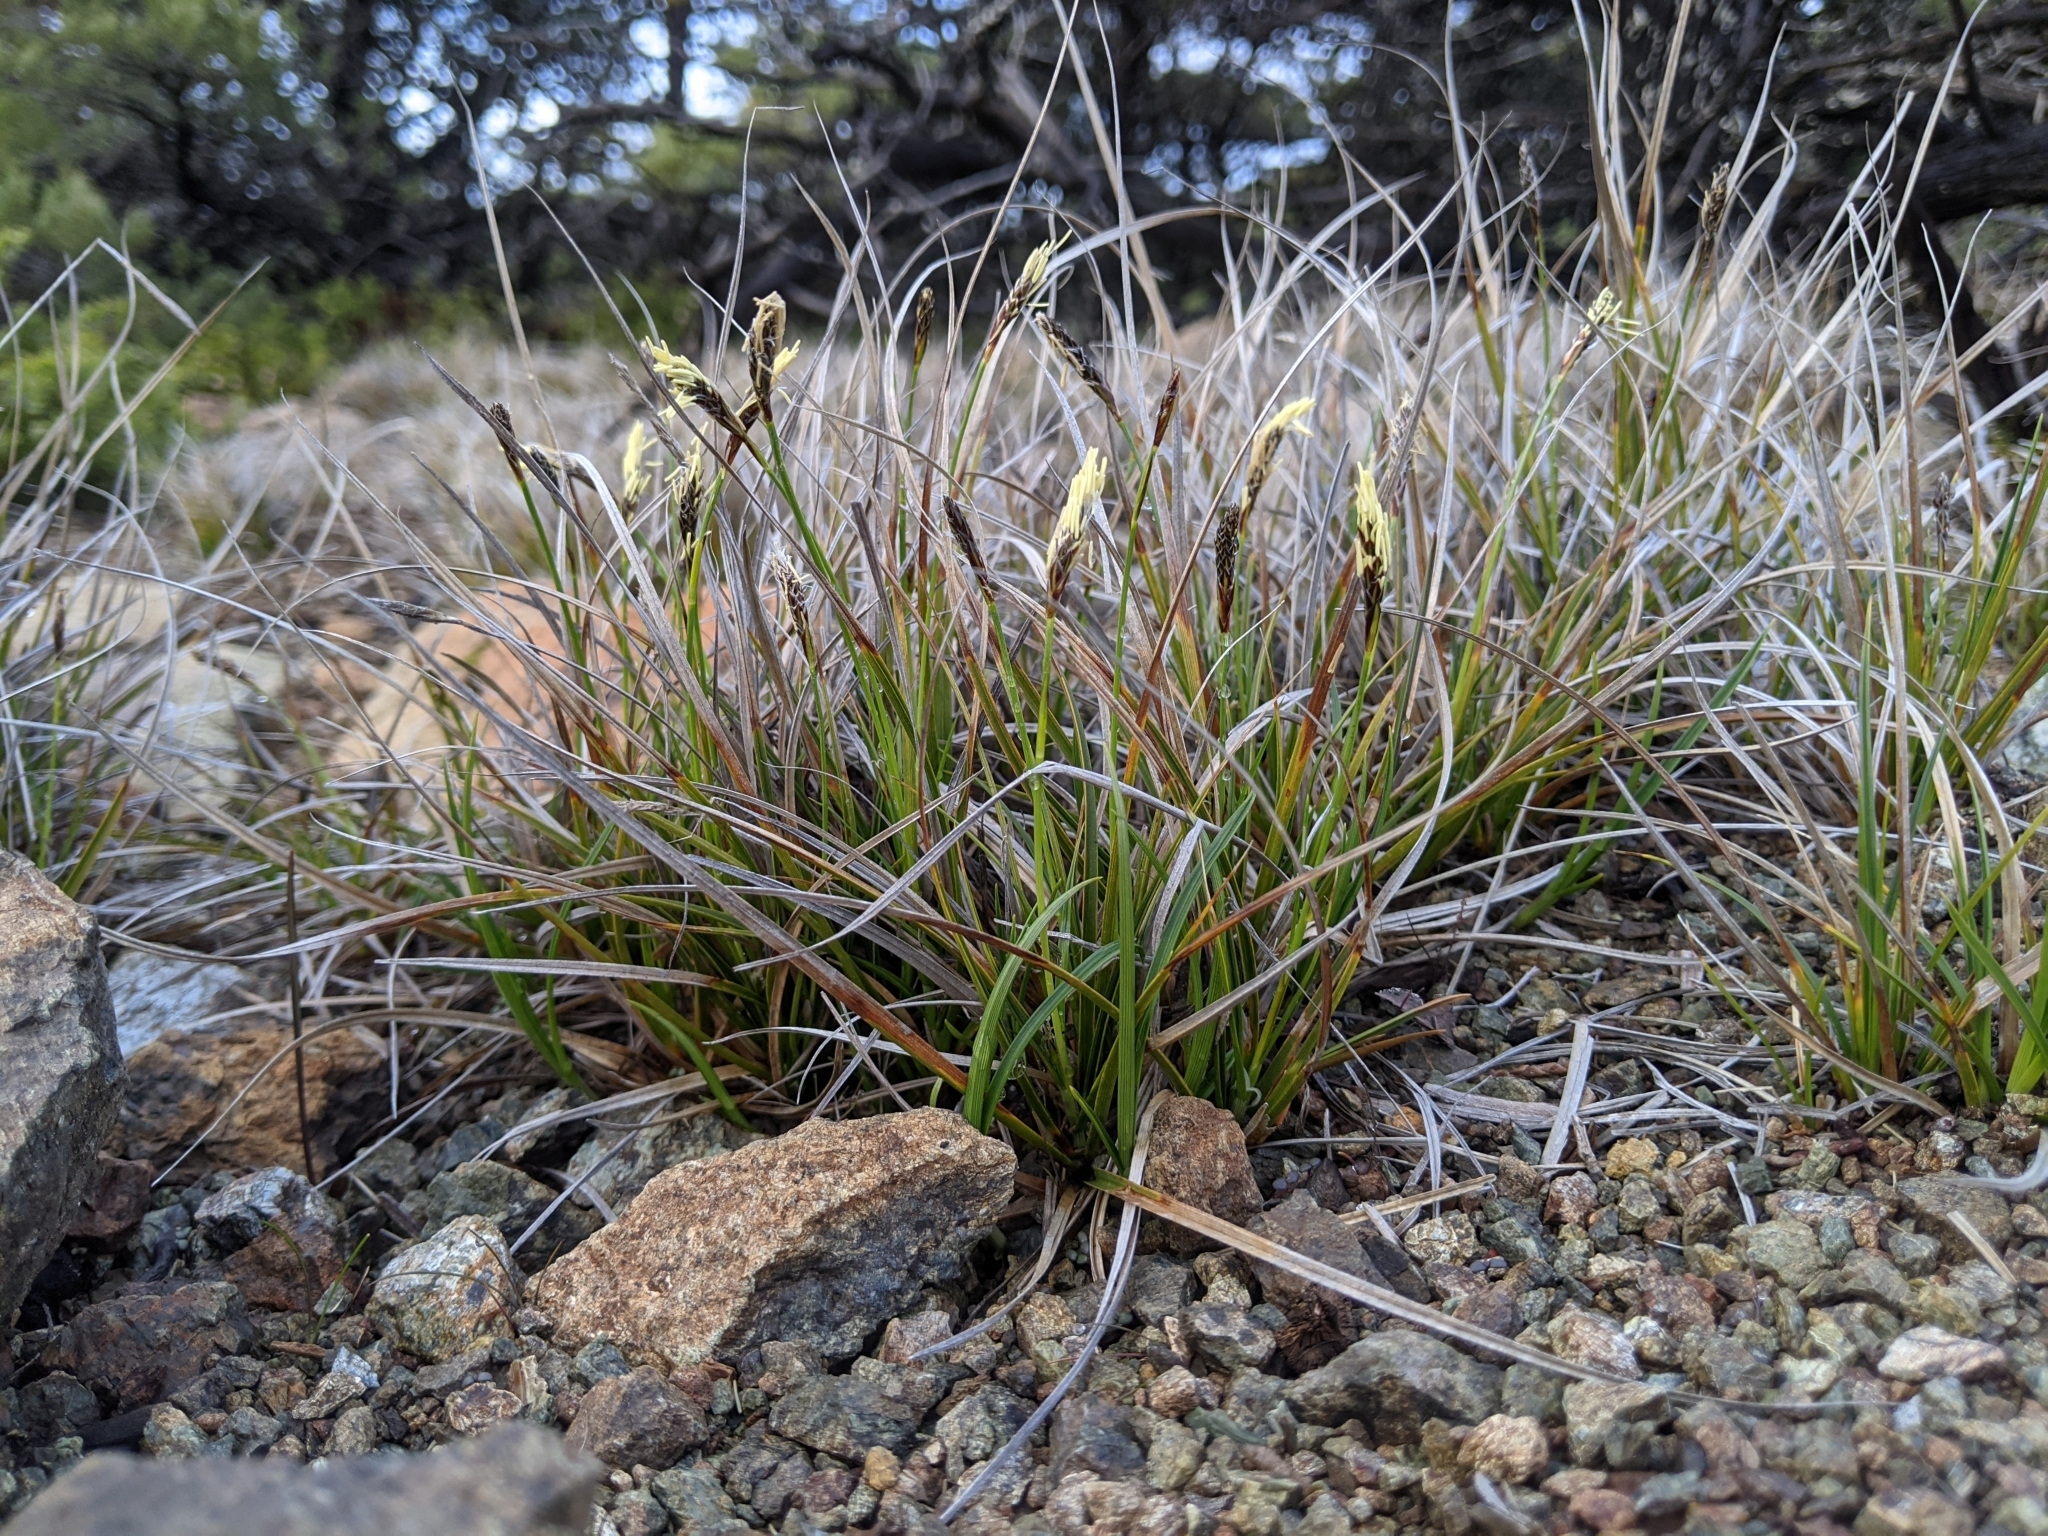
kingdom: Plantae
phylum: Tracheophyta
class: Liliopsida
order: Poales
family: Cyperaceae
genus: Carex
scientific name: Carex globosa
